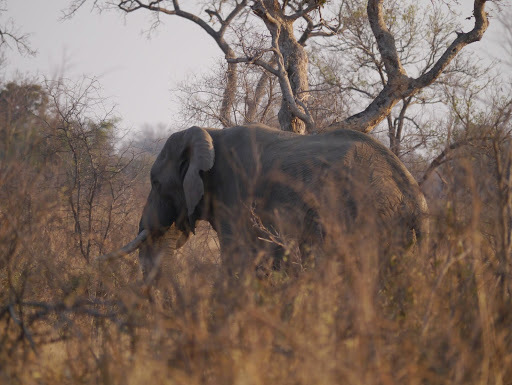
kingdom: Animalia
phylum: Chordata
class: Mammalia
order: Proboscidea
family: Elephantidae
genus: Loxodonta
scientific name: Loxodonta africana
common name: African elephant
